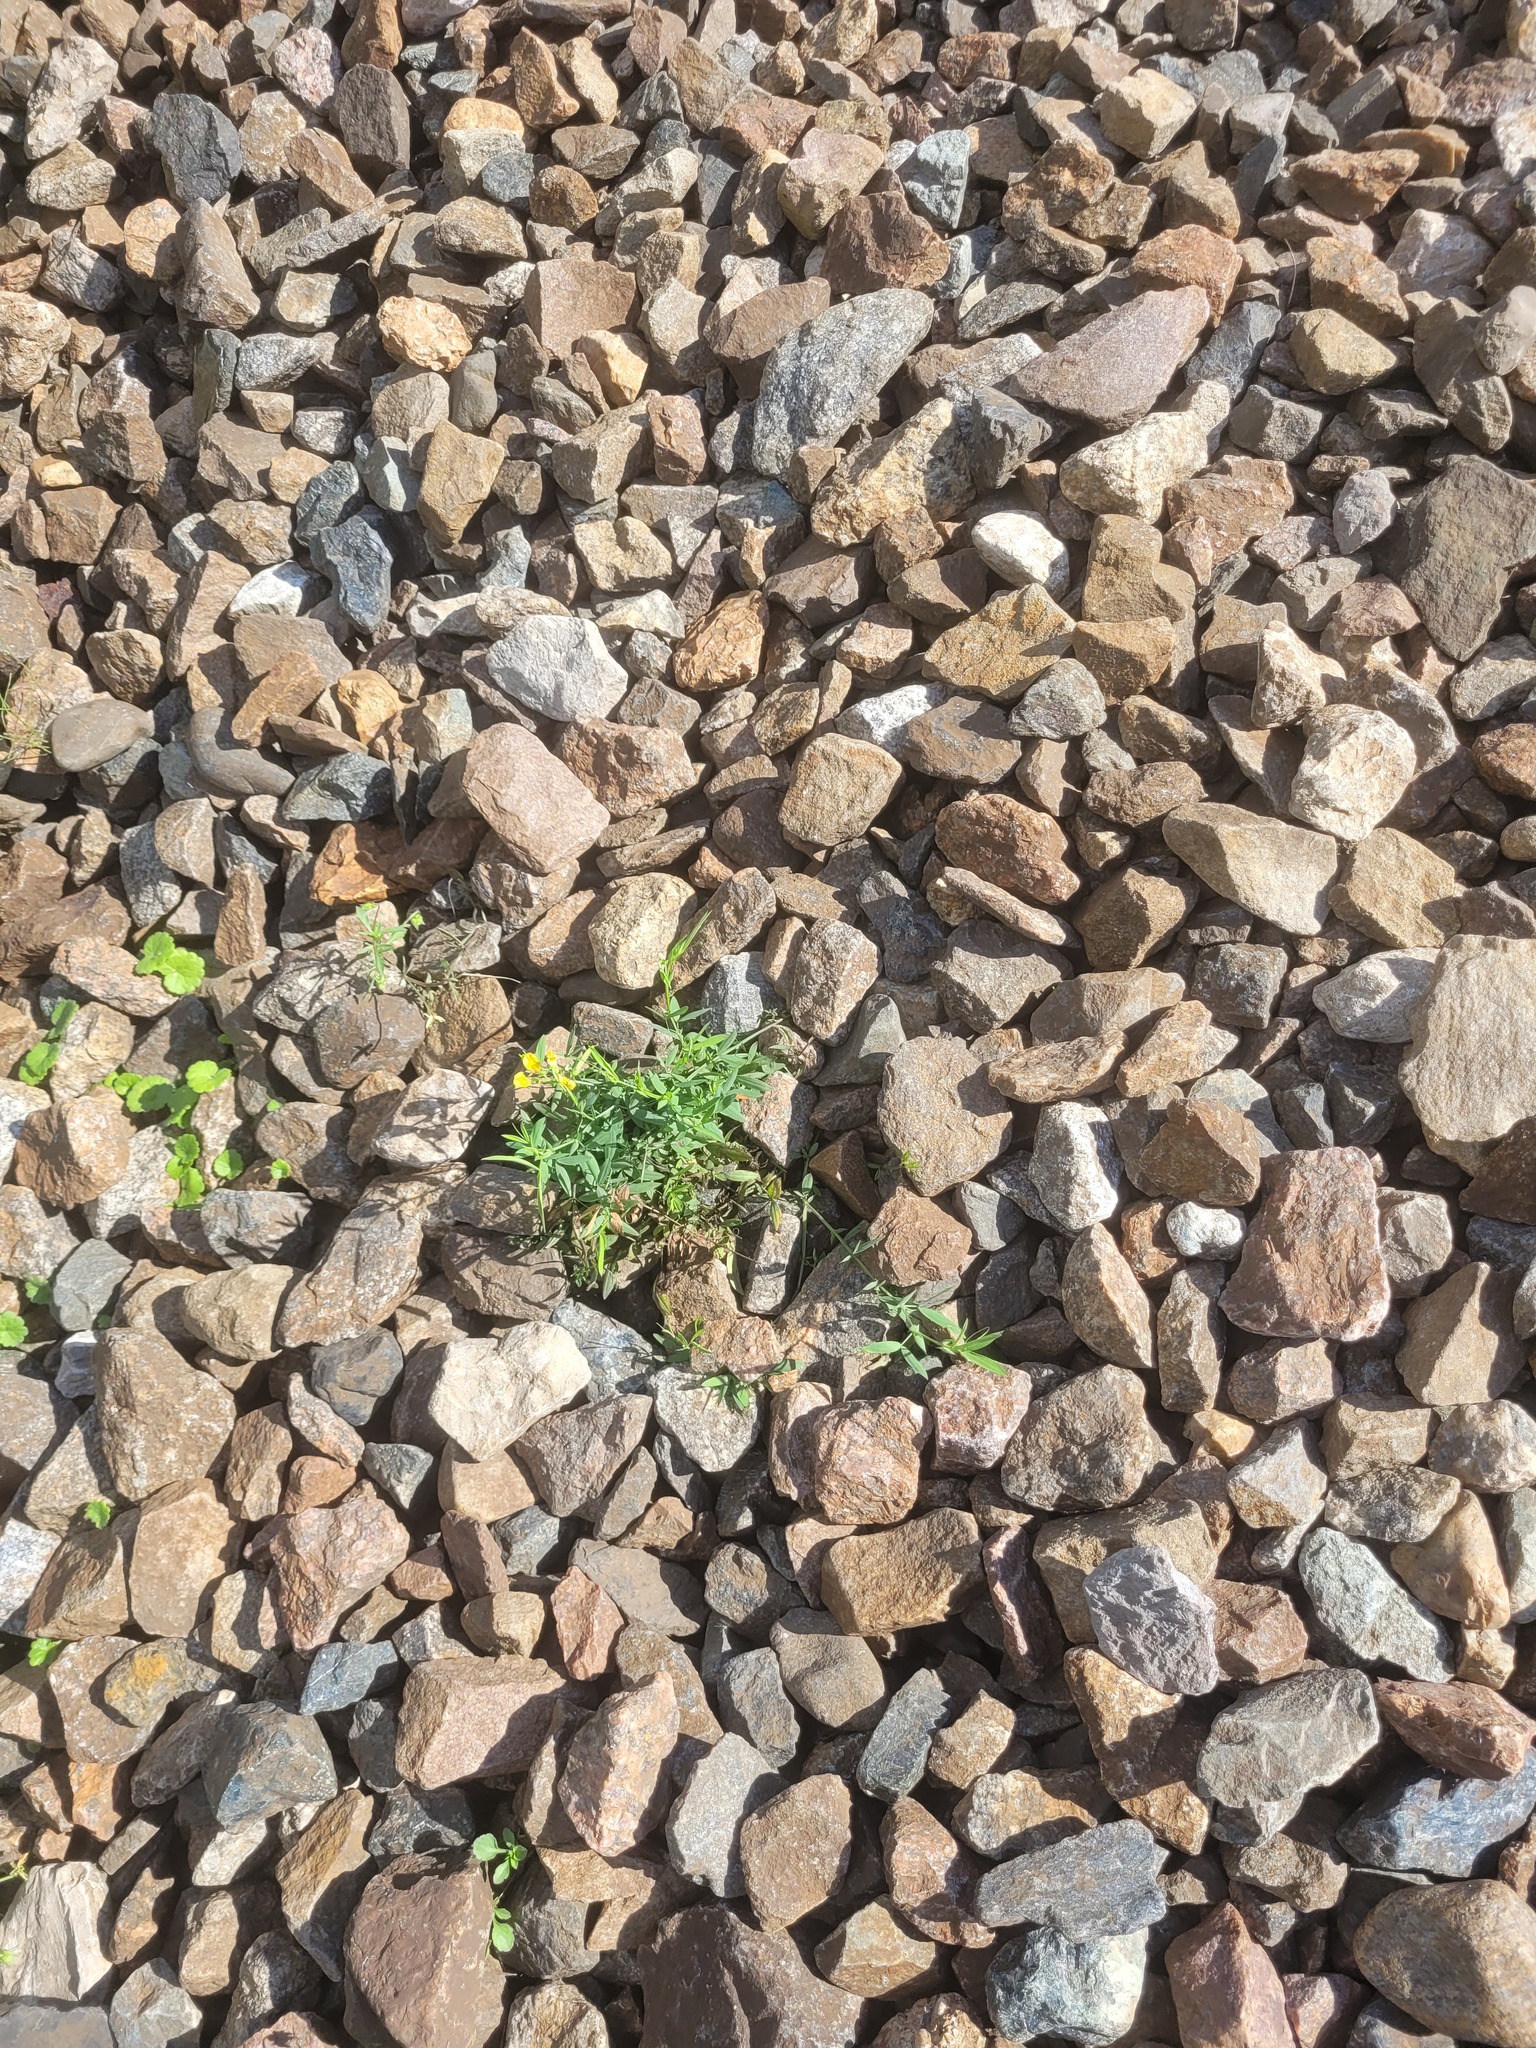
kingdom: Plantae
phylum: Tracheophyta
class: Magnoliopsida
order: Fabales
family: Fabaceae
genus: Lathyrus
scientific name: Lathyrus pratensis
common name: Meadow vetchling
